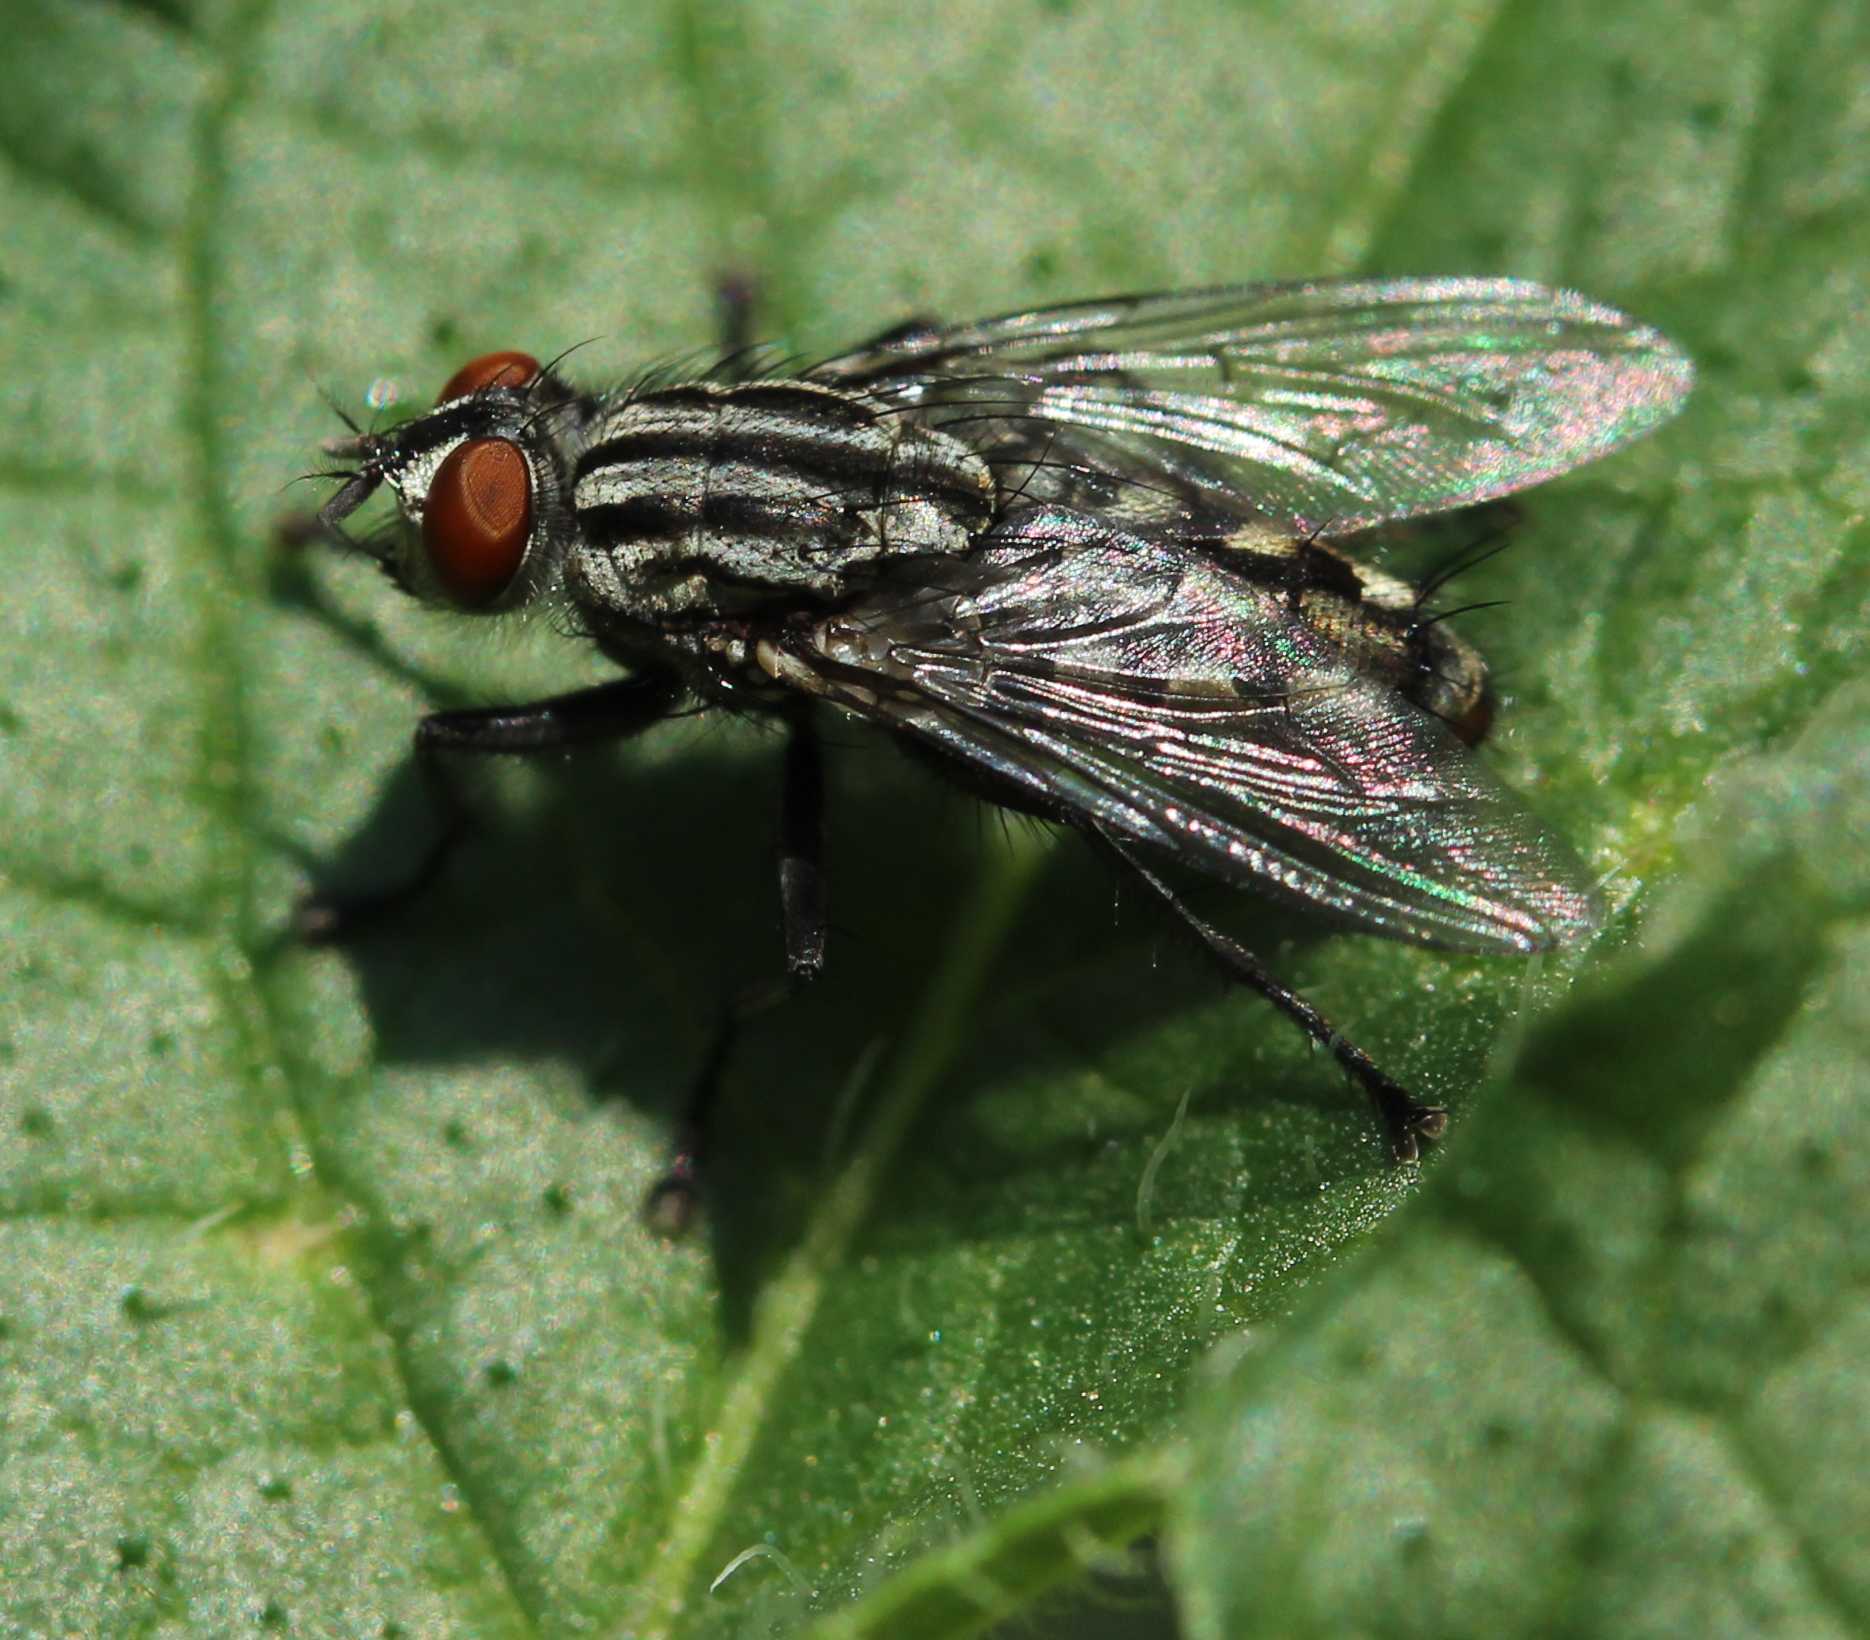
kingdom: Animalia
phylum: Arthropoda
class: Insecta
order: Diptera
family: Sarcophagidae
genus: Sarcophaga
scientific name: Sarcophaga
